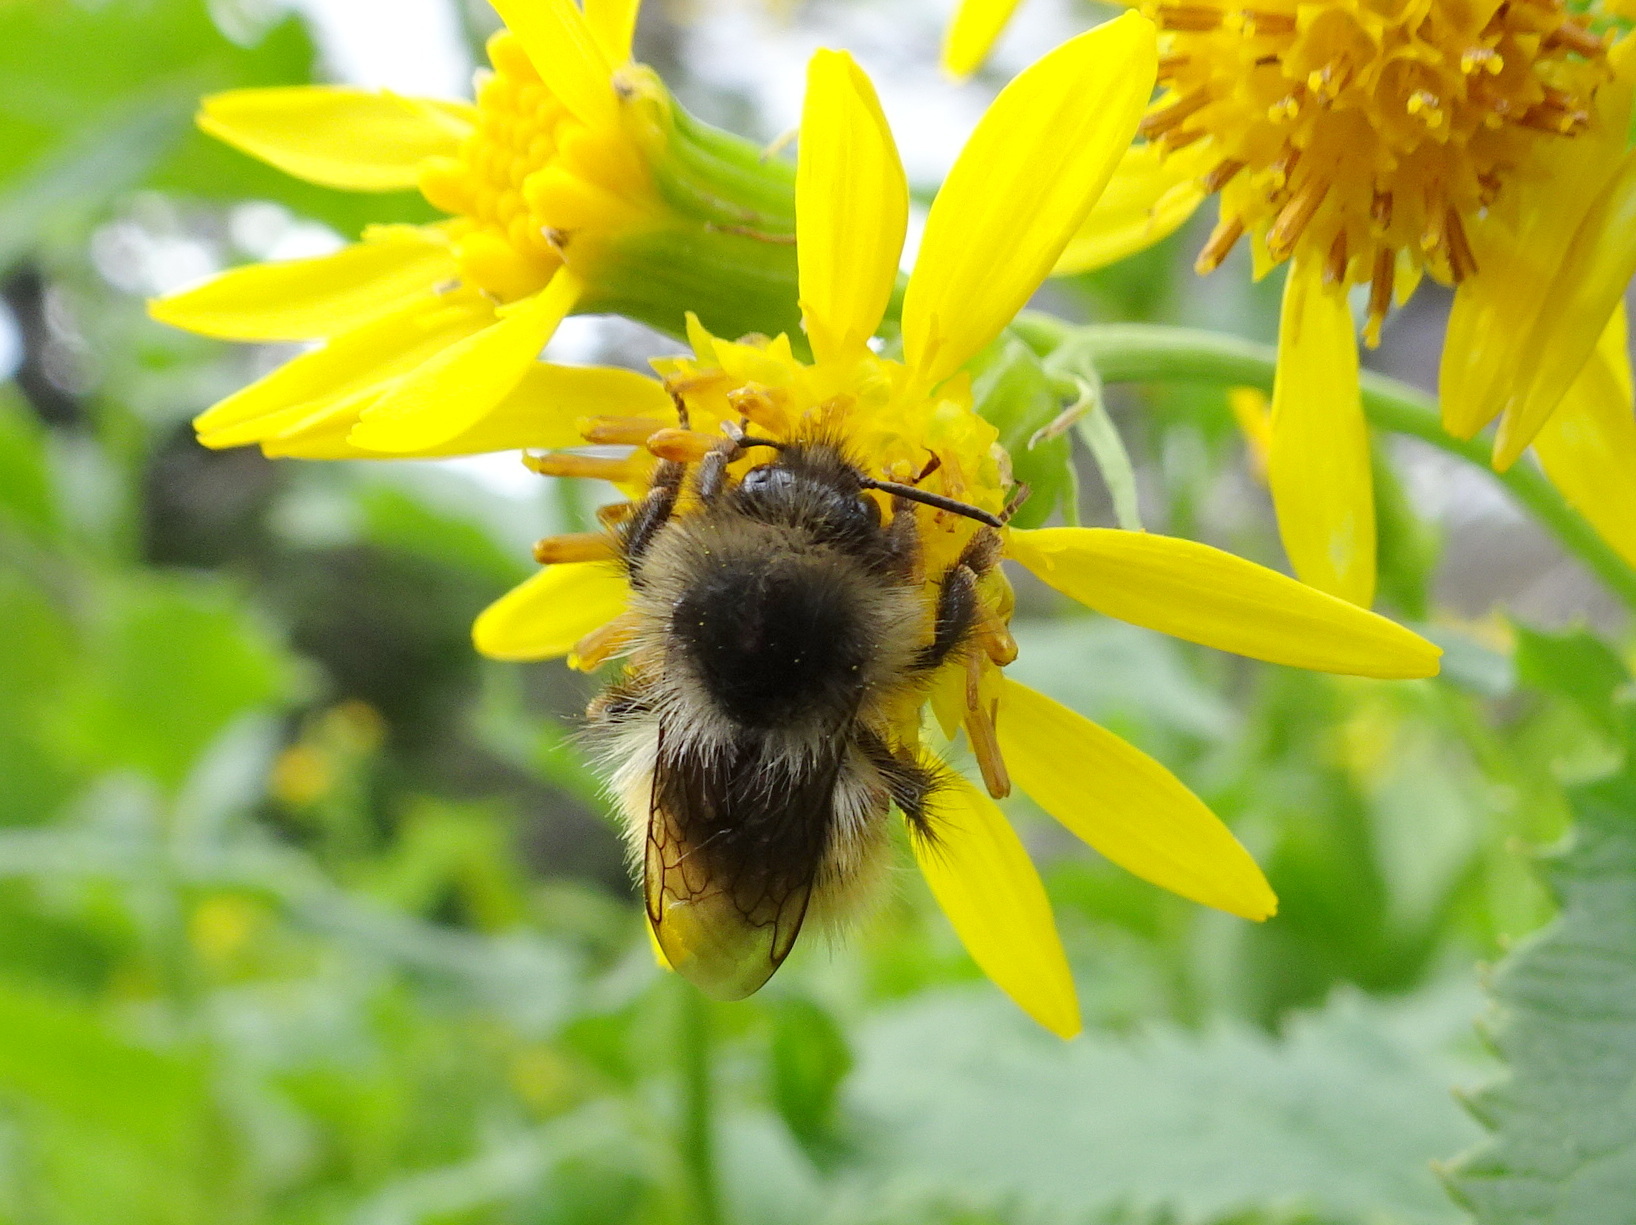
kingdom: Animalia
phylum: Arthropoda
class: Insecta
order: Hymenoptera
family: Apidae
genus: Bombus
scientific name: Bombus mixtus
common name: Fuzzy-horned bumble bee
